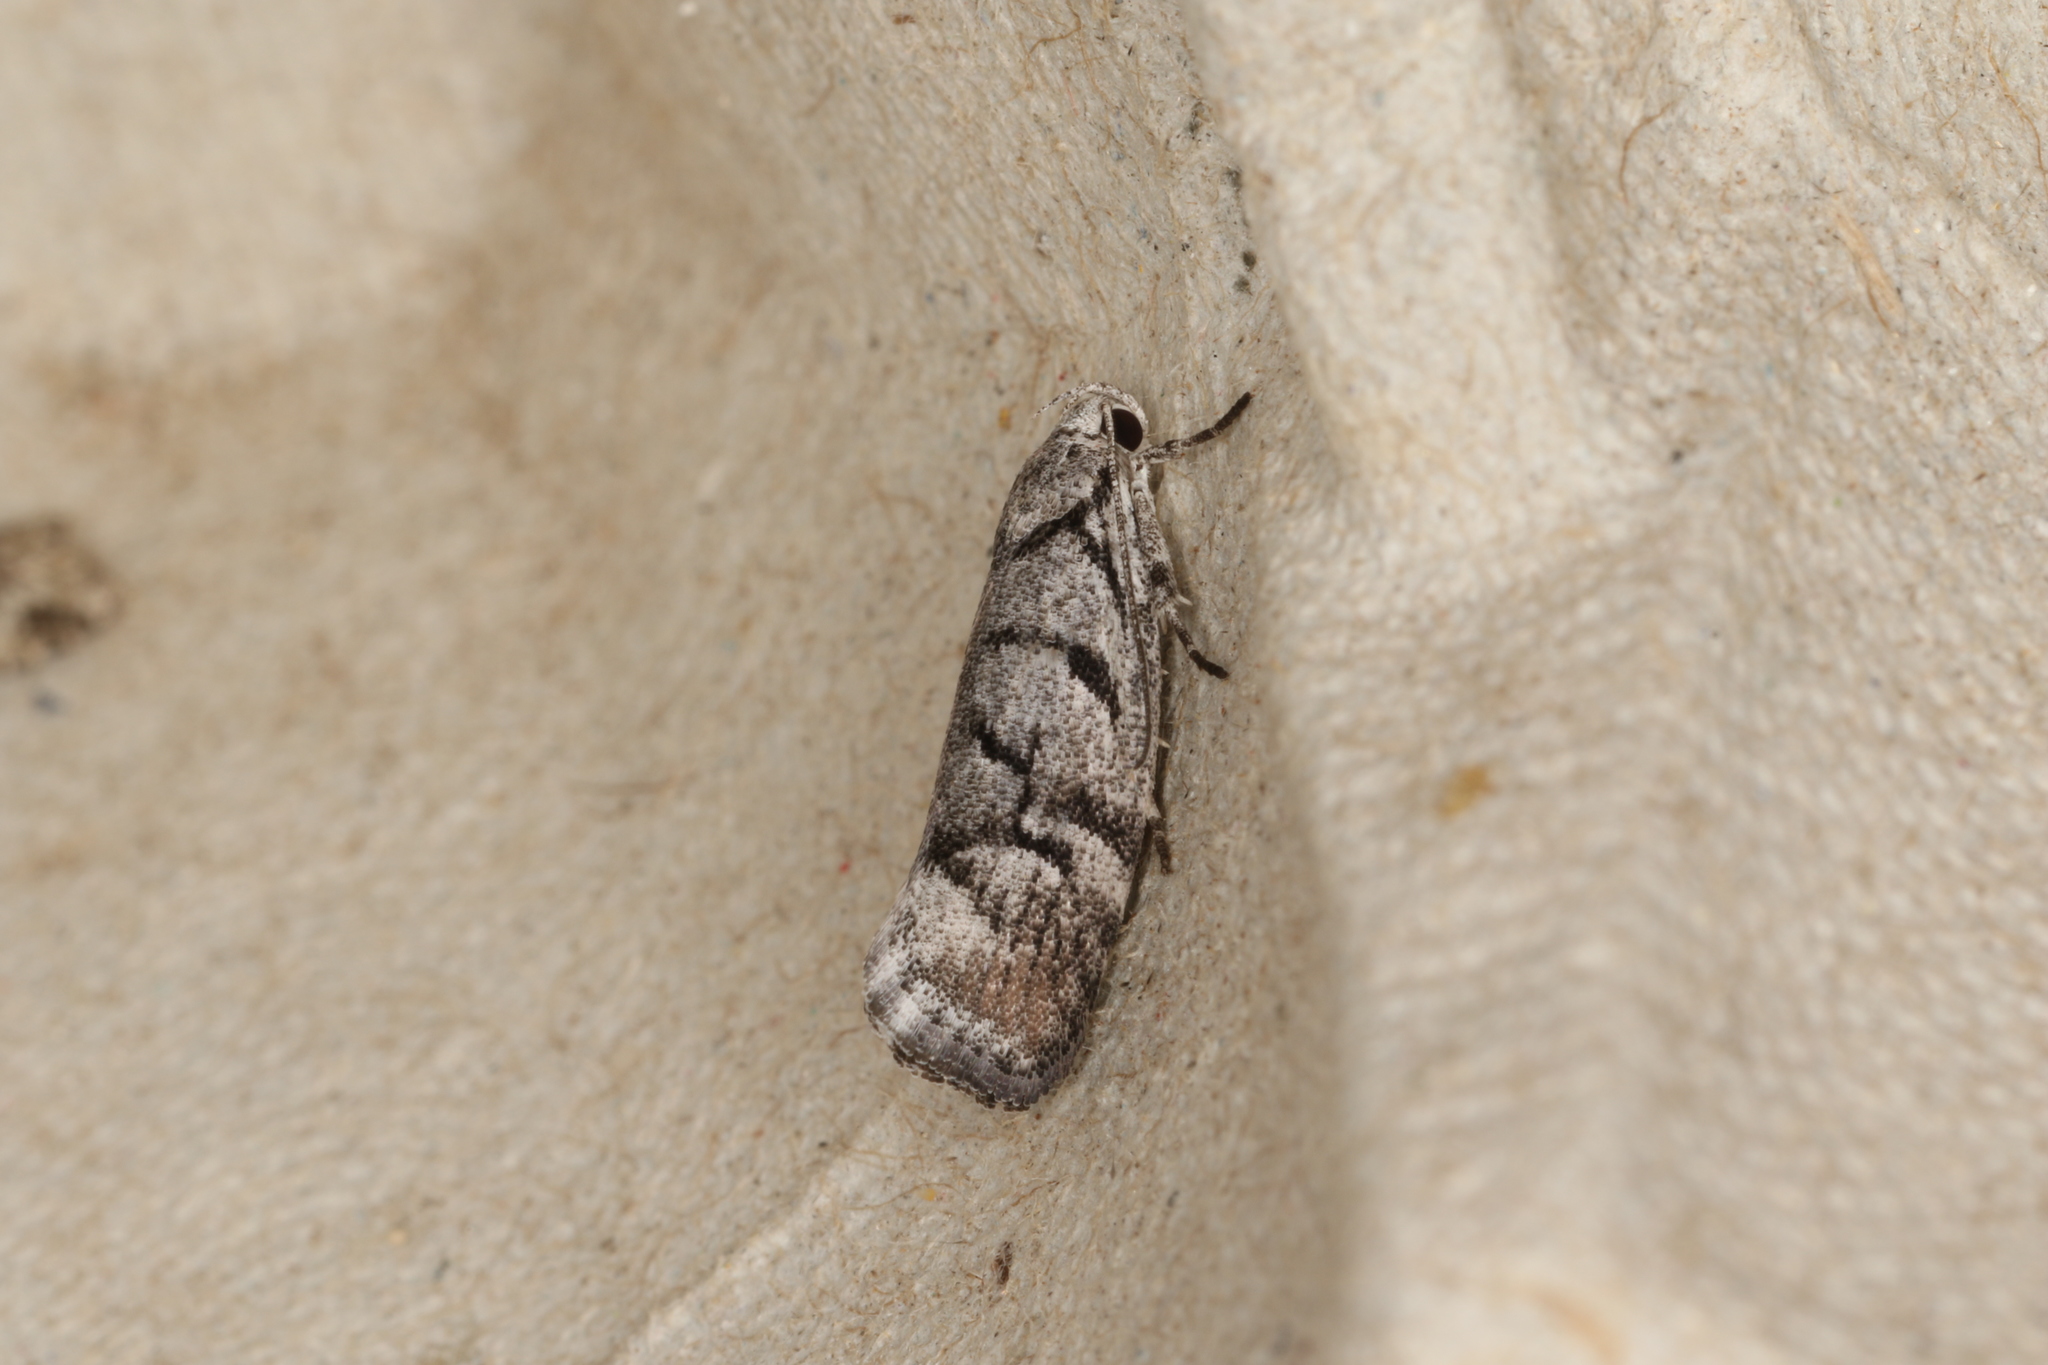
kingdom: Animalia
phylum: Arthropoda
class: Insecta
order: Lepidoptera
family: Xyloryctidae
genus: Lichenaula
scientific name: Lichenaula onychodes
